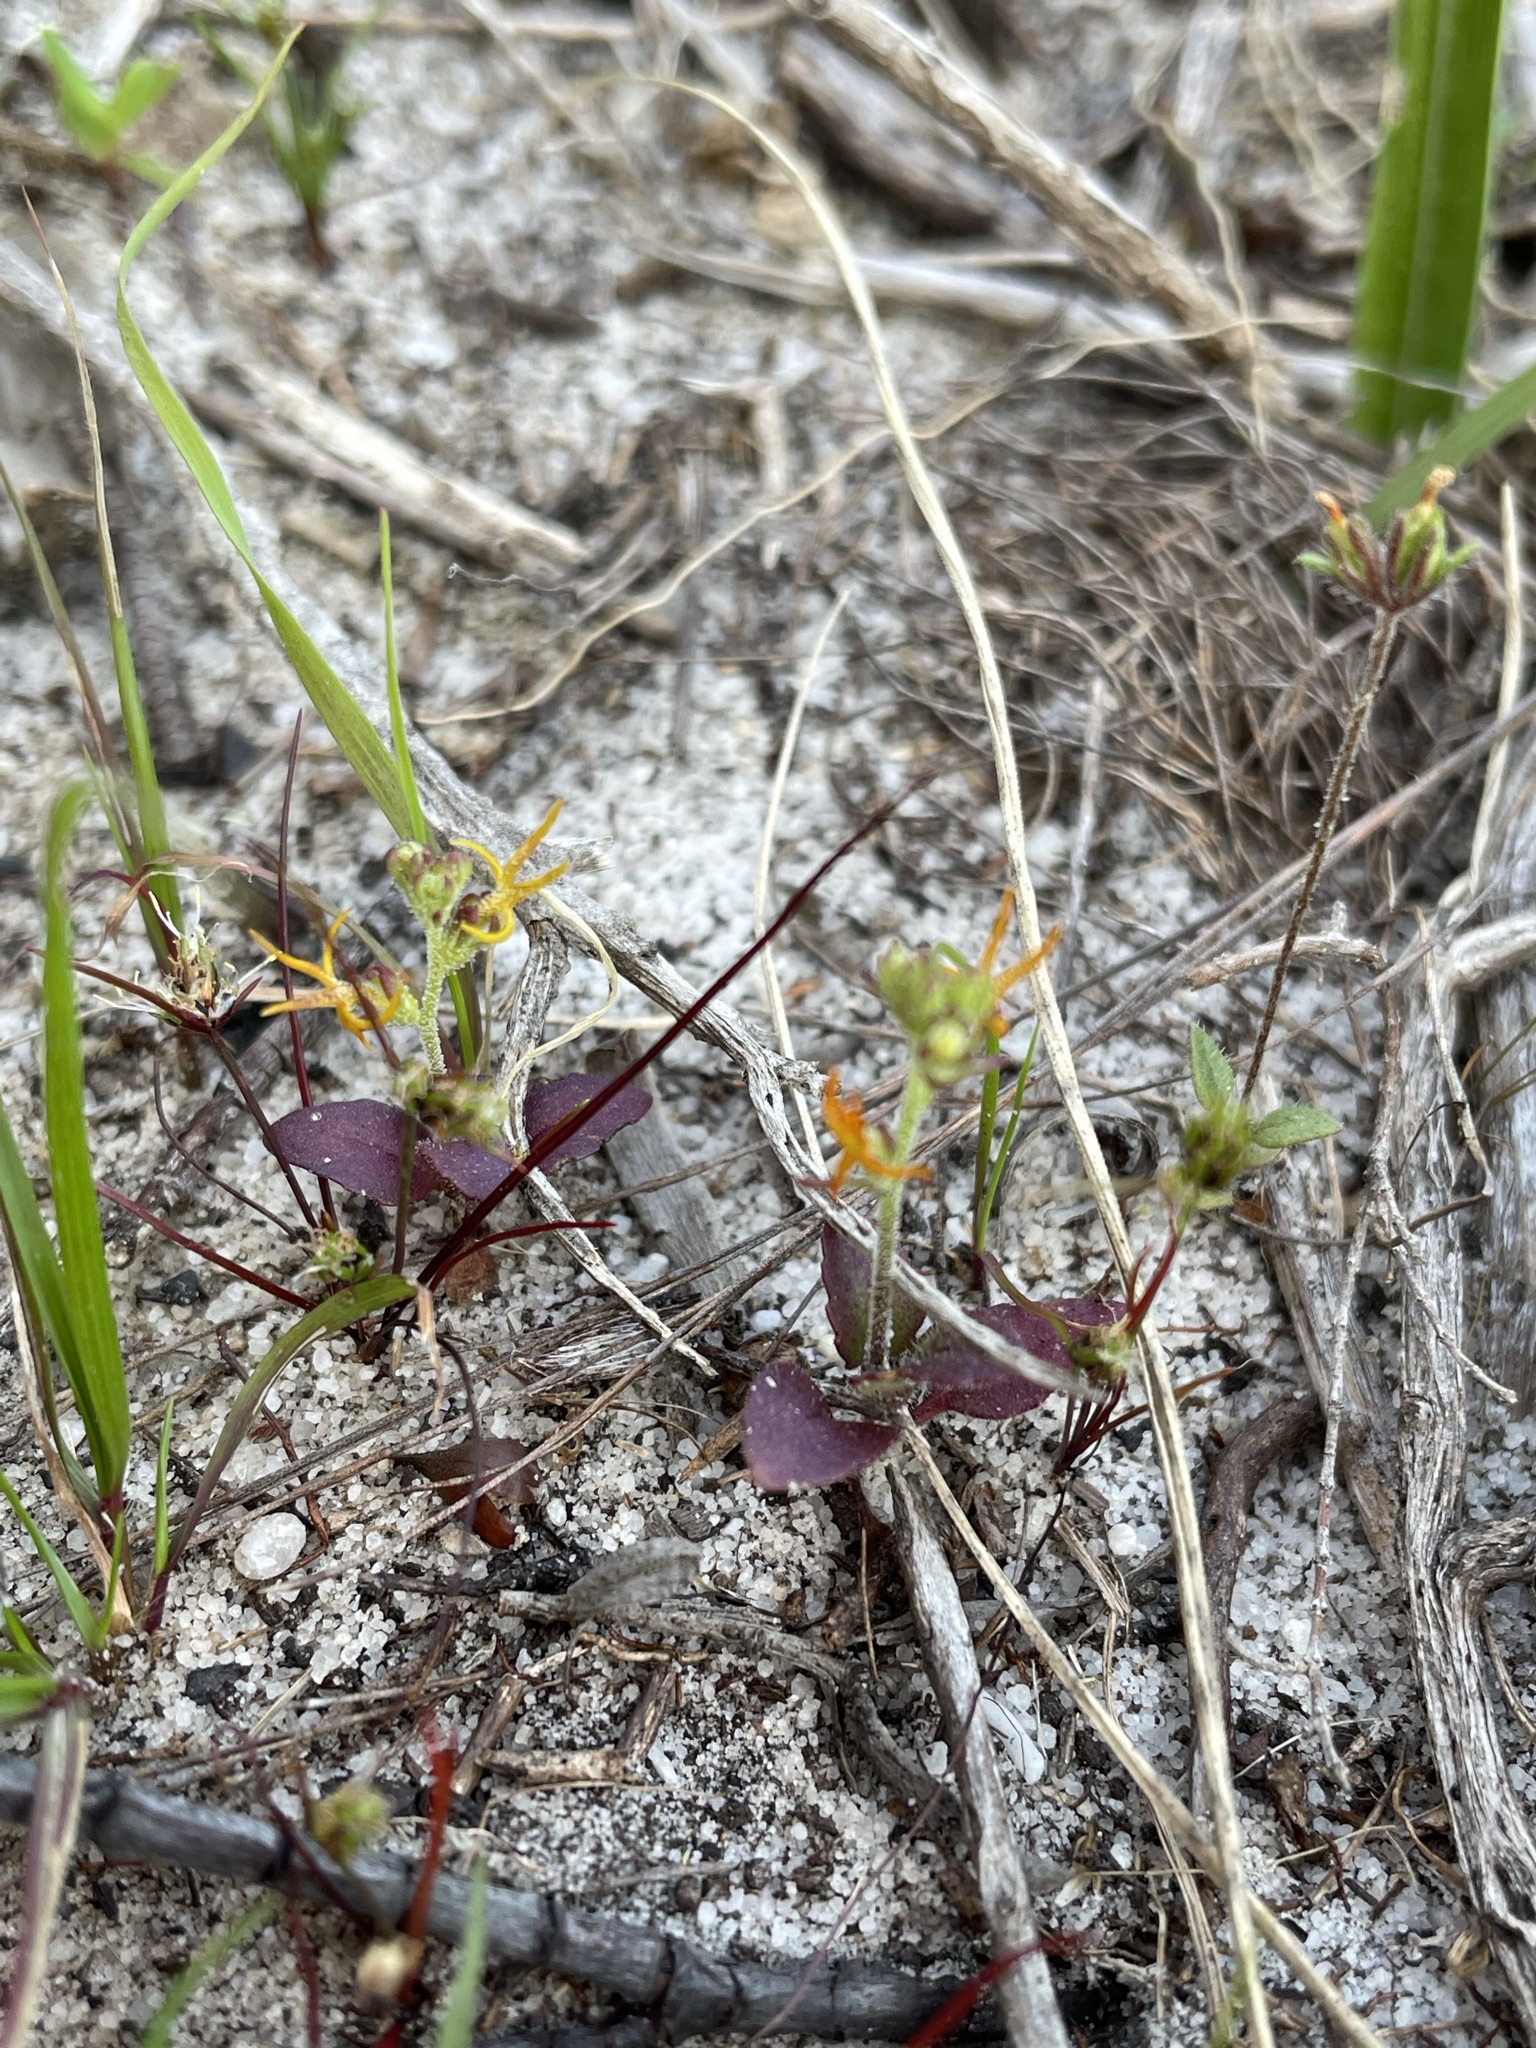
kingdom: Plantae
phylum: Tracheophyta
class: Magnoliopsida
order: Lamiales
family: Scrophulariaceae
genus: Manulea
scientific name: Manulea cheiranthus
